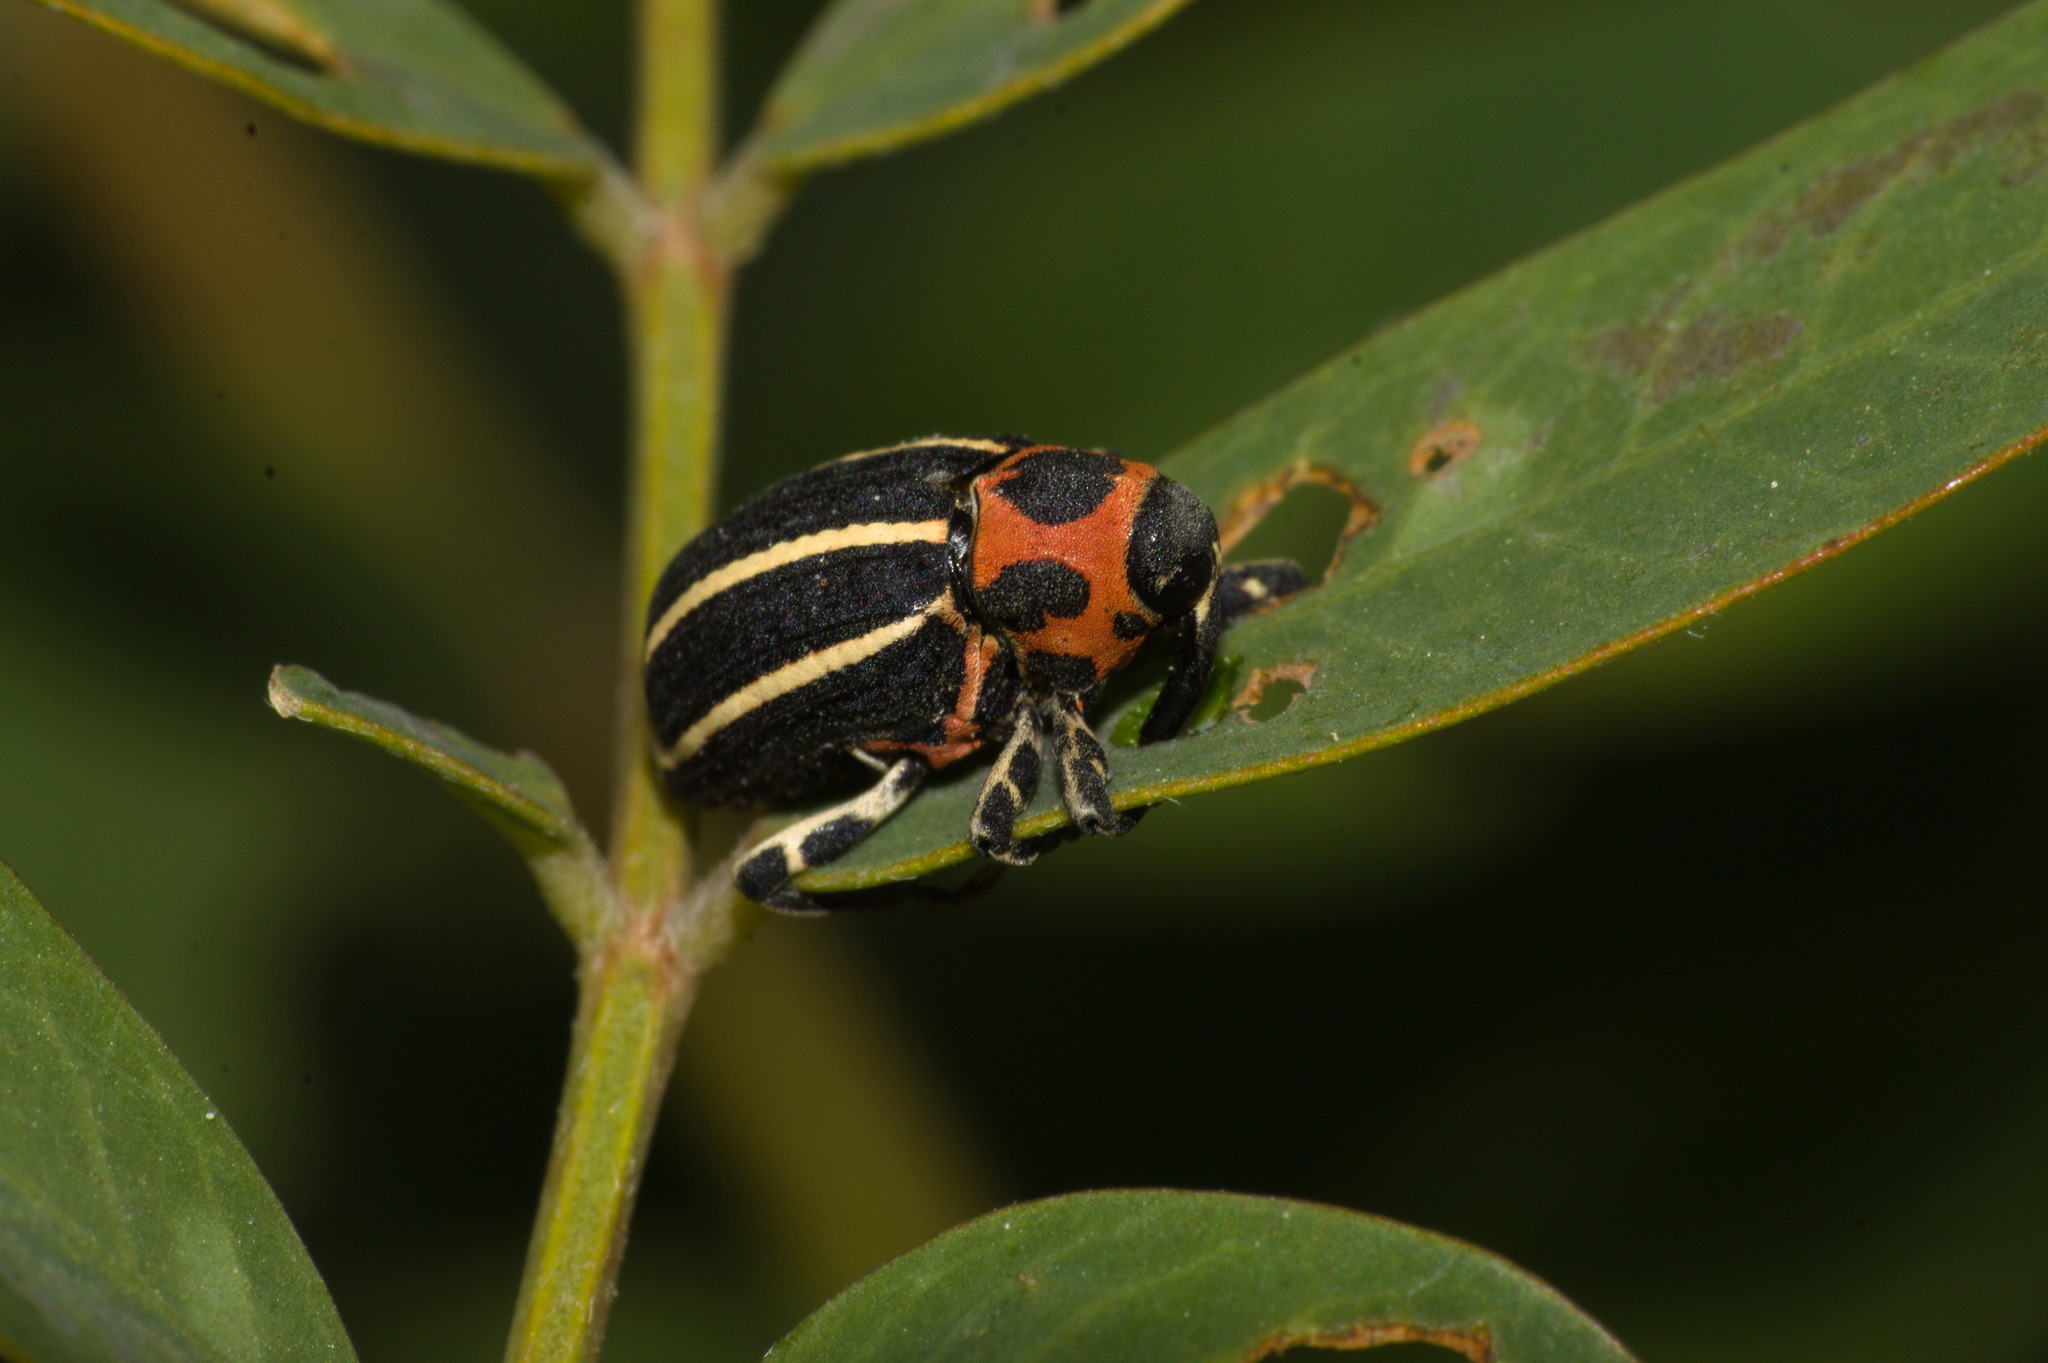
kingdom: Animalia
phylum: Arthropoda
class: Insecta
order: Coleoptera
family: Curculionidae
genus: Neodiplogrammus
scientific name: Neodiplogrammus
